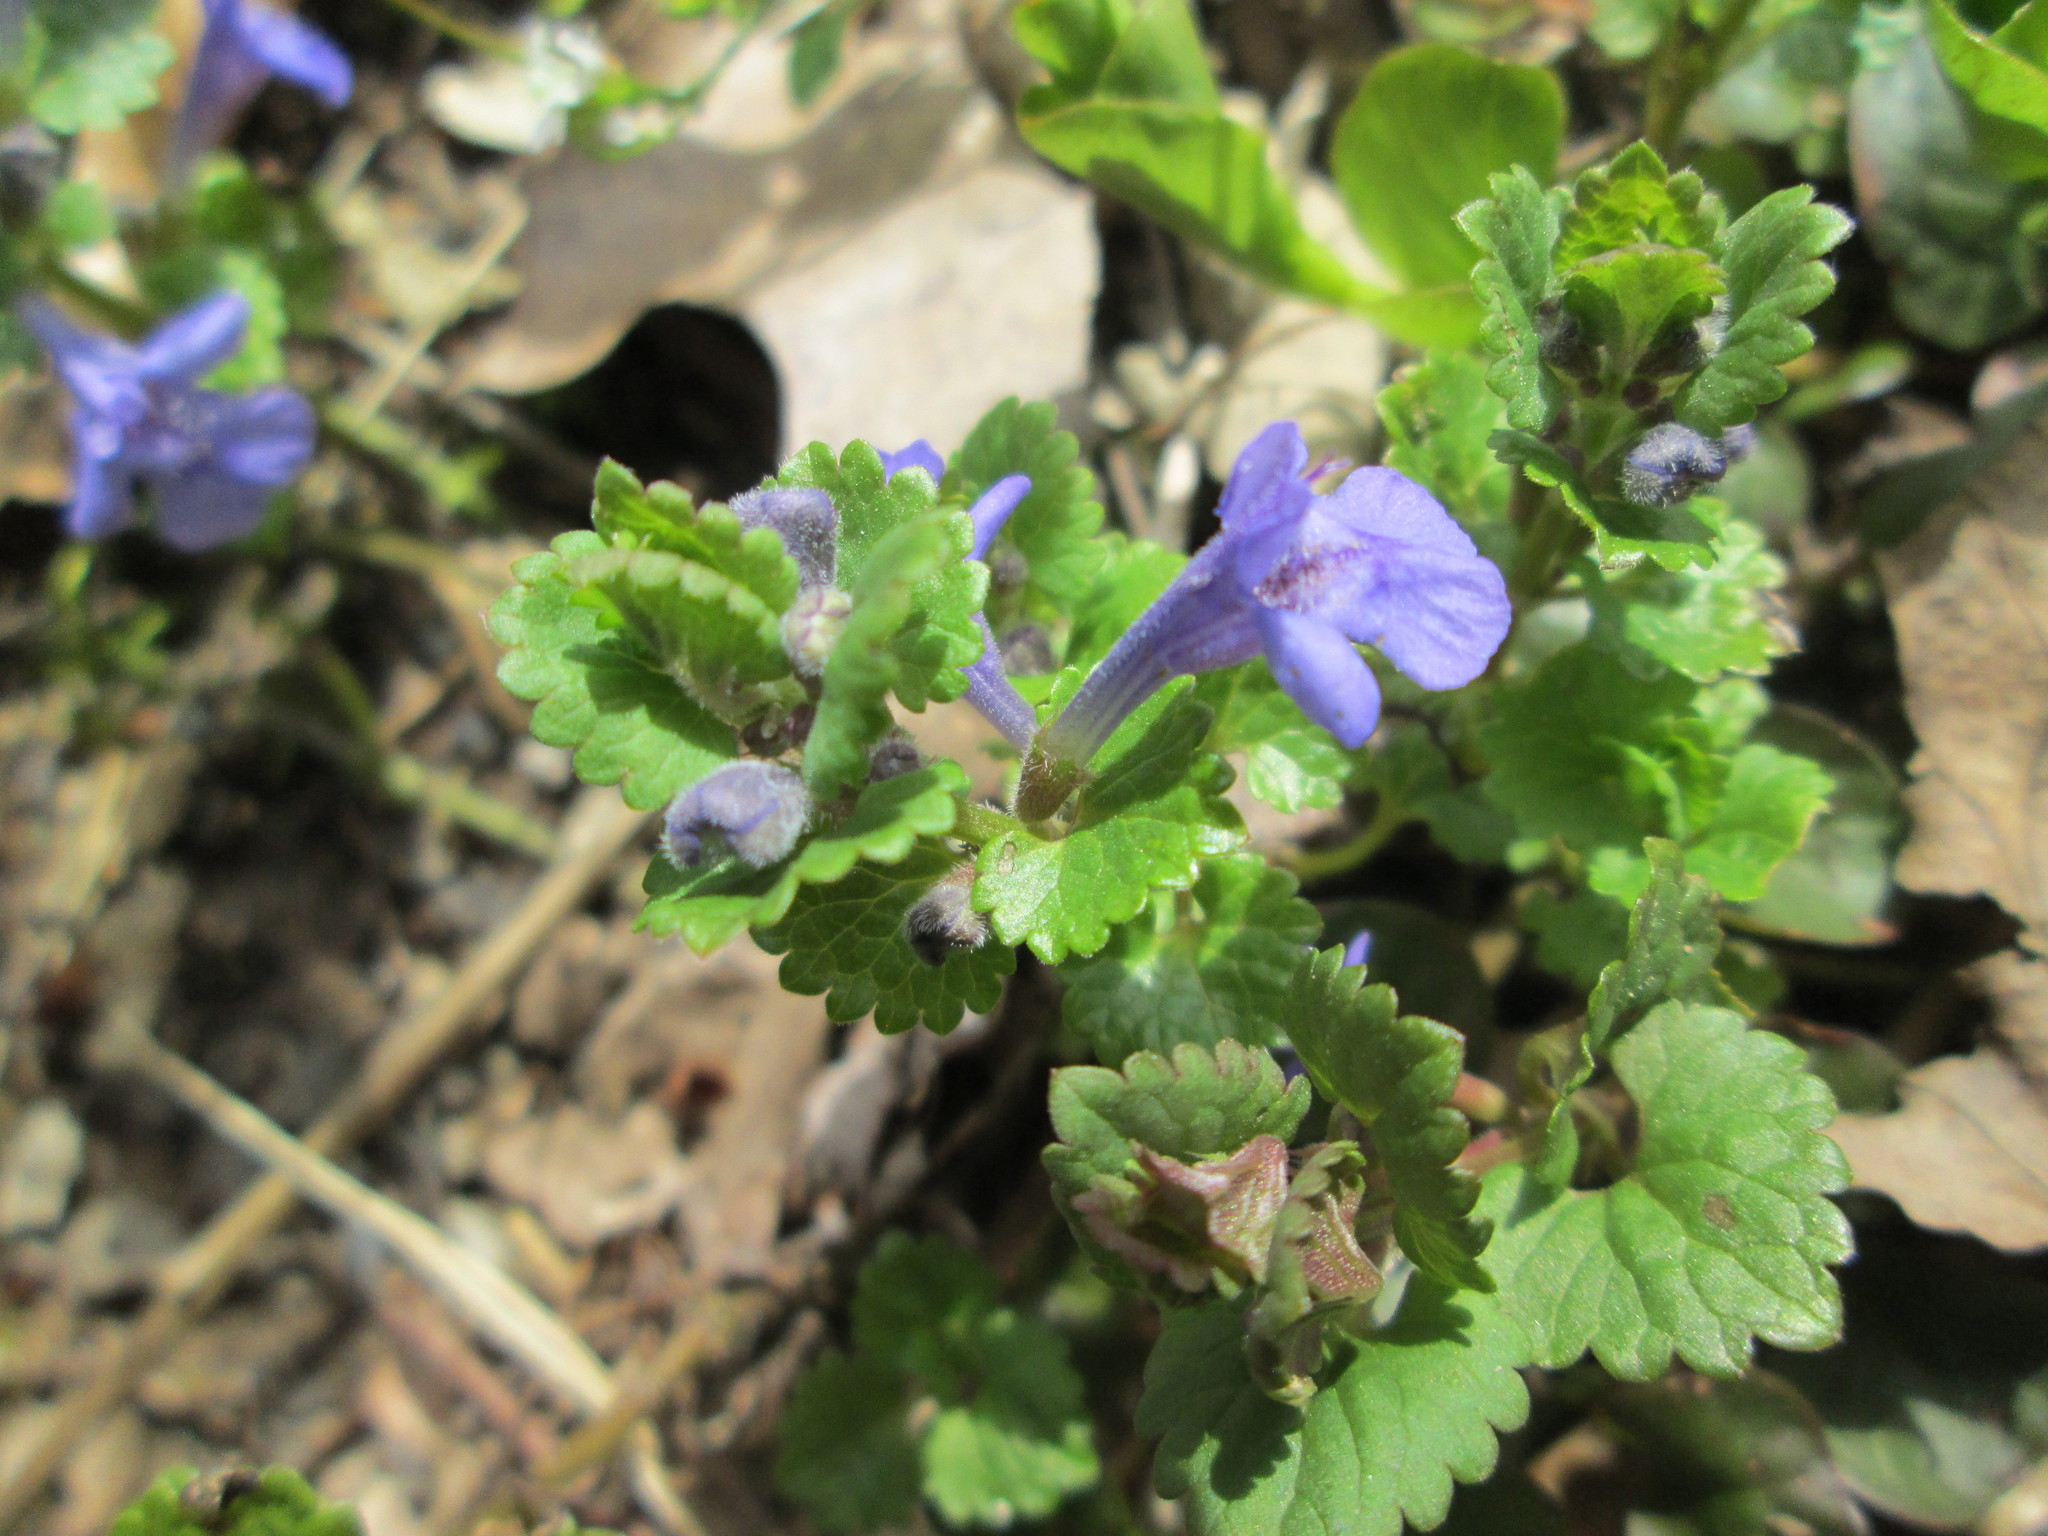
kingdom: Plantae
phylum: Tracheophyta
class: Magnoliopsida
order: Lamiales
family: Lamiaceae
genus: Glechoma
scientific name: Glechoma hederacea
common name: Ground ivy
